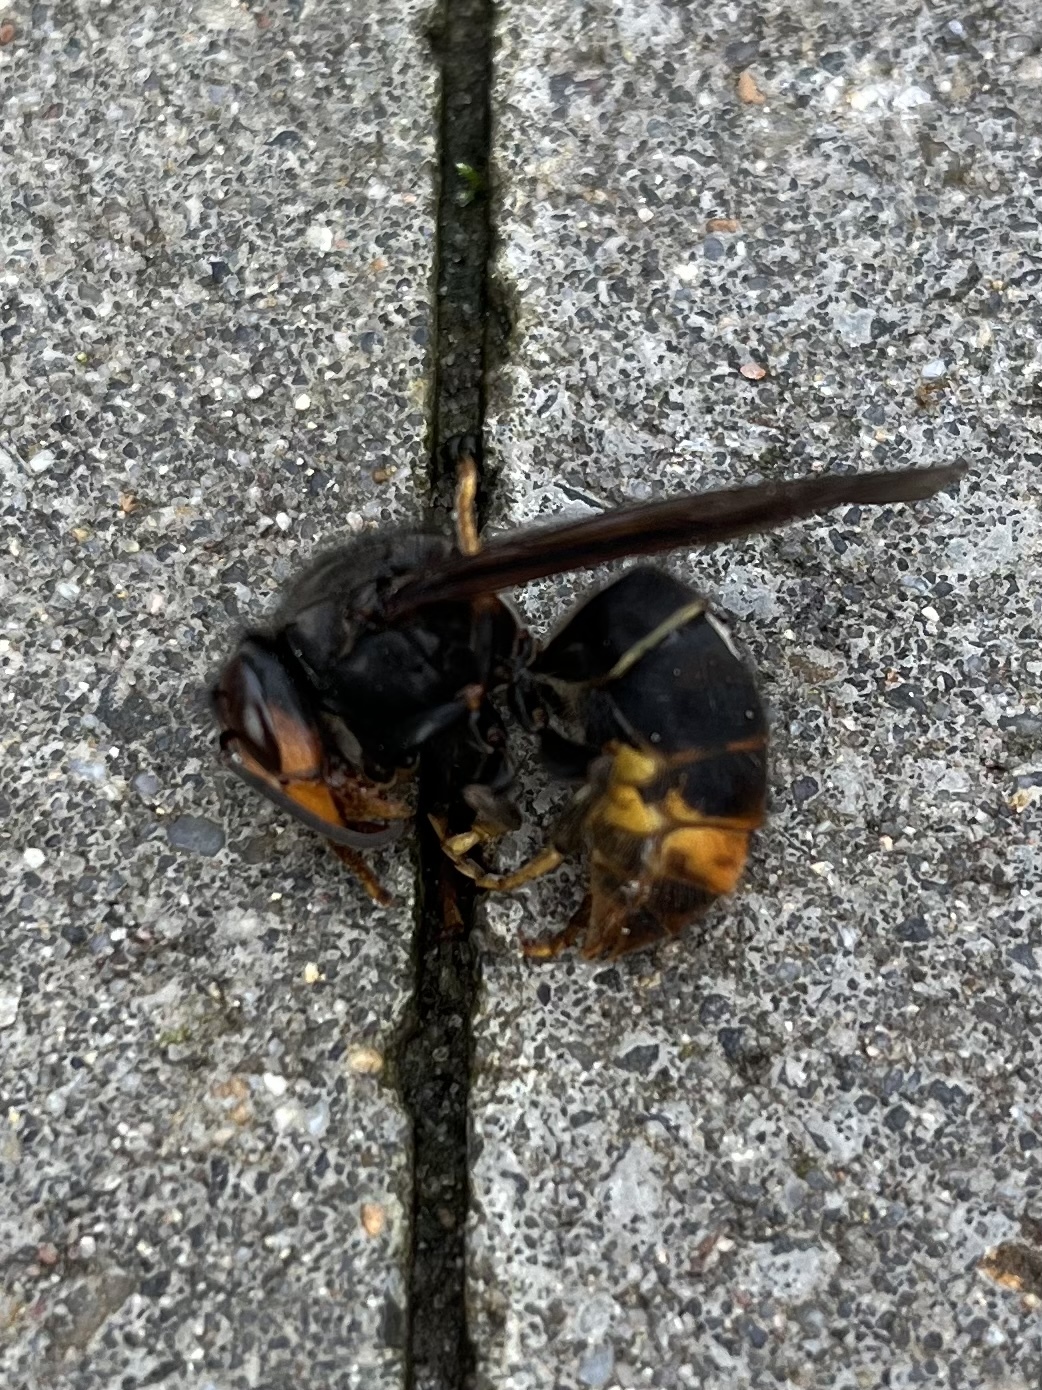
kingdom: Animalia
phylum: Arthropoda
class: Insecta
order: Hymenoptera
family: Vespidae
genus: Vespa
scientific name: Vespa velutina
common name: Asian hornet
